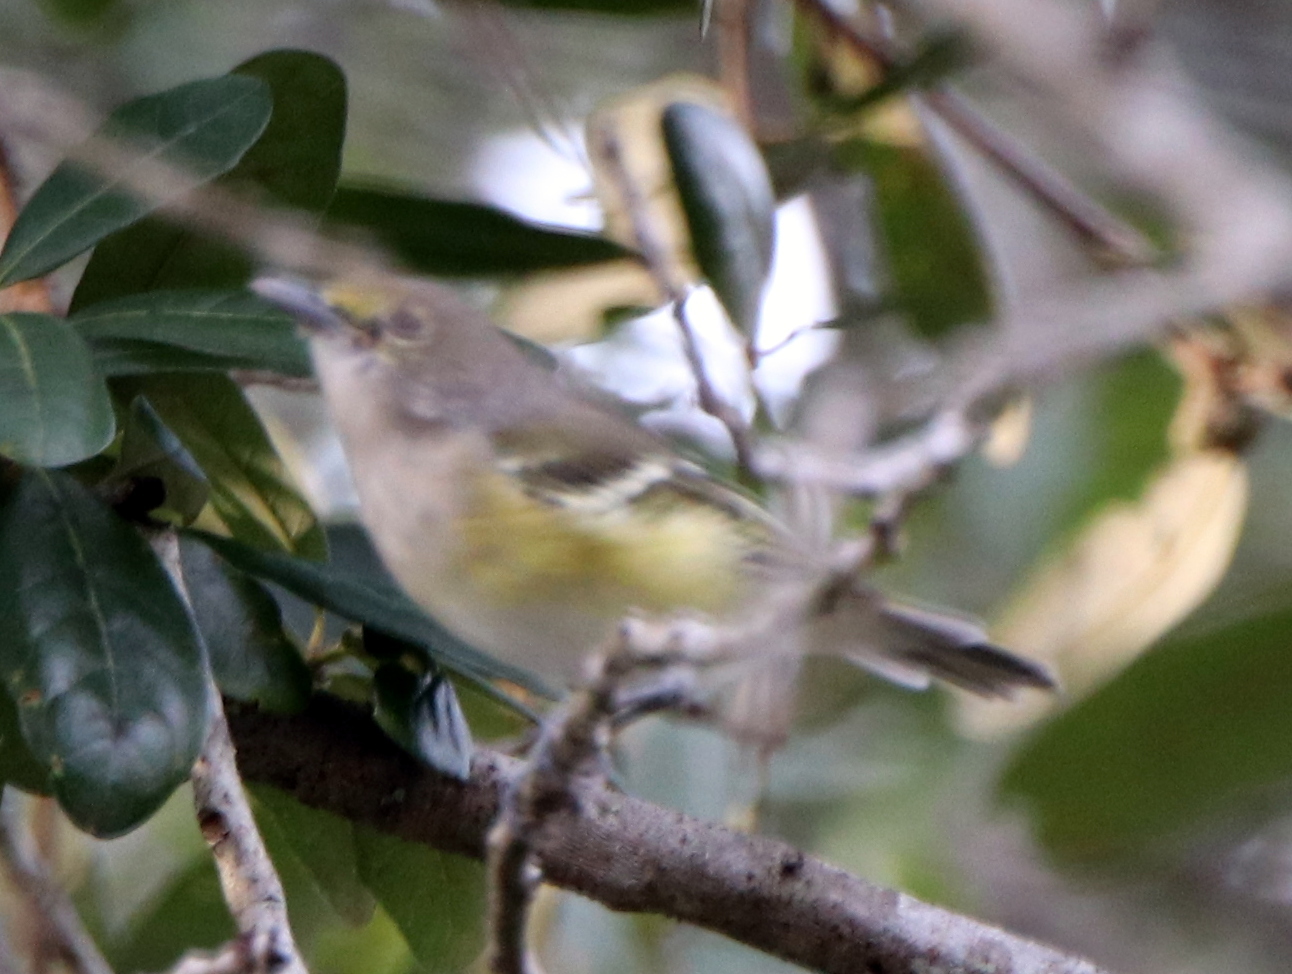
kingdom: Animalia
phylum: Chordata
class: Aves
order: Passeriformes
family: Vireonidae
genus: Vireo
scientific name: Vireo griseus
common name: White-eyed vireo
